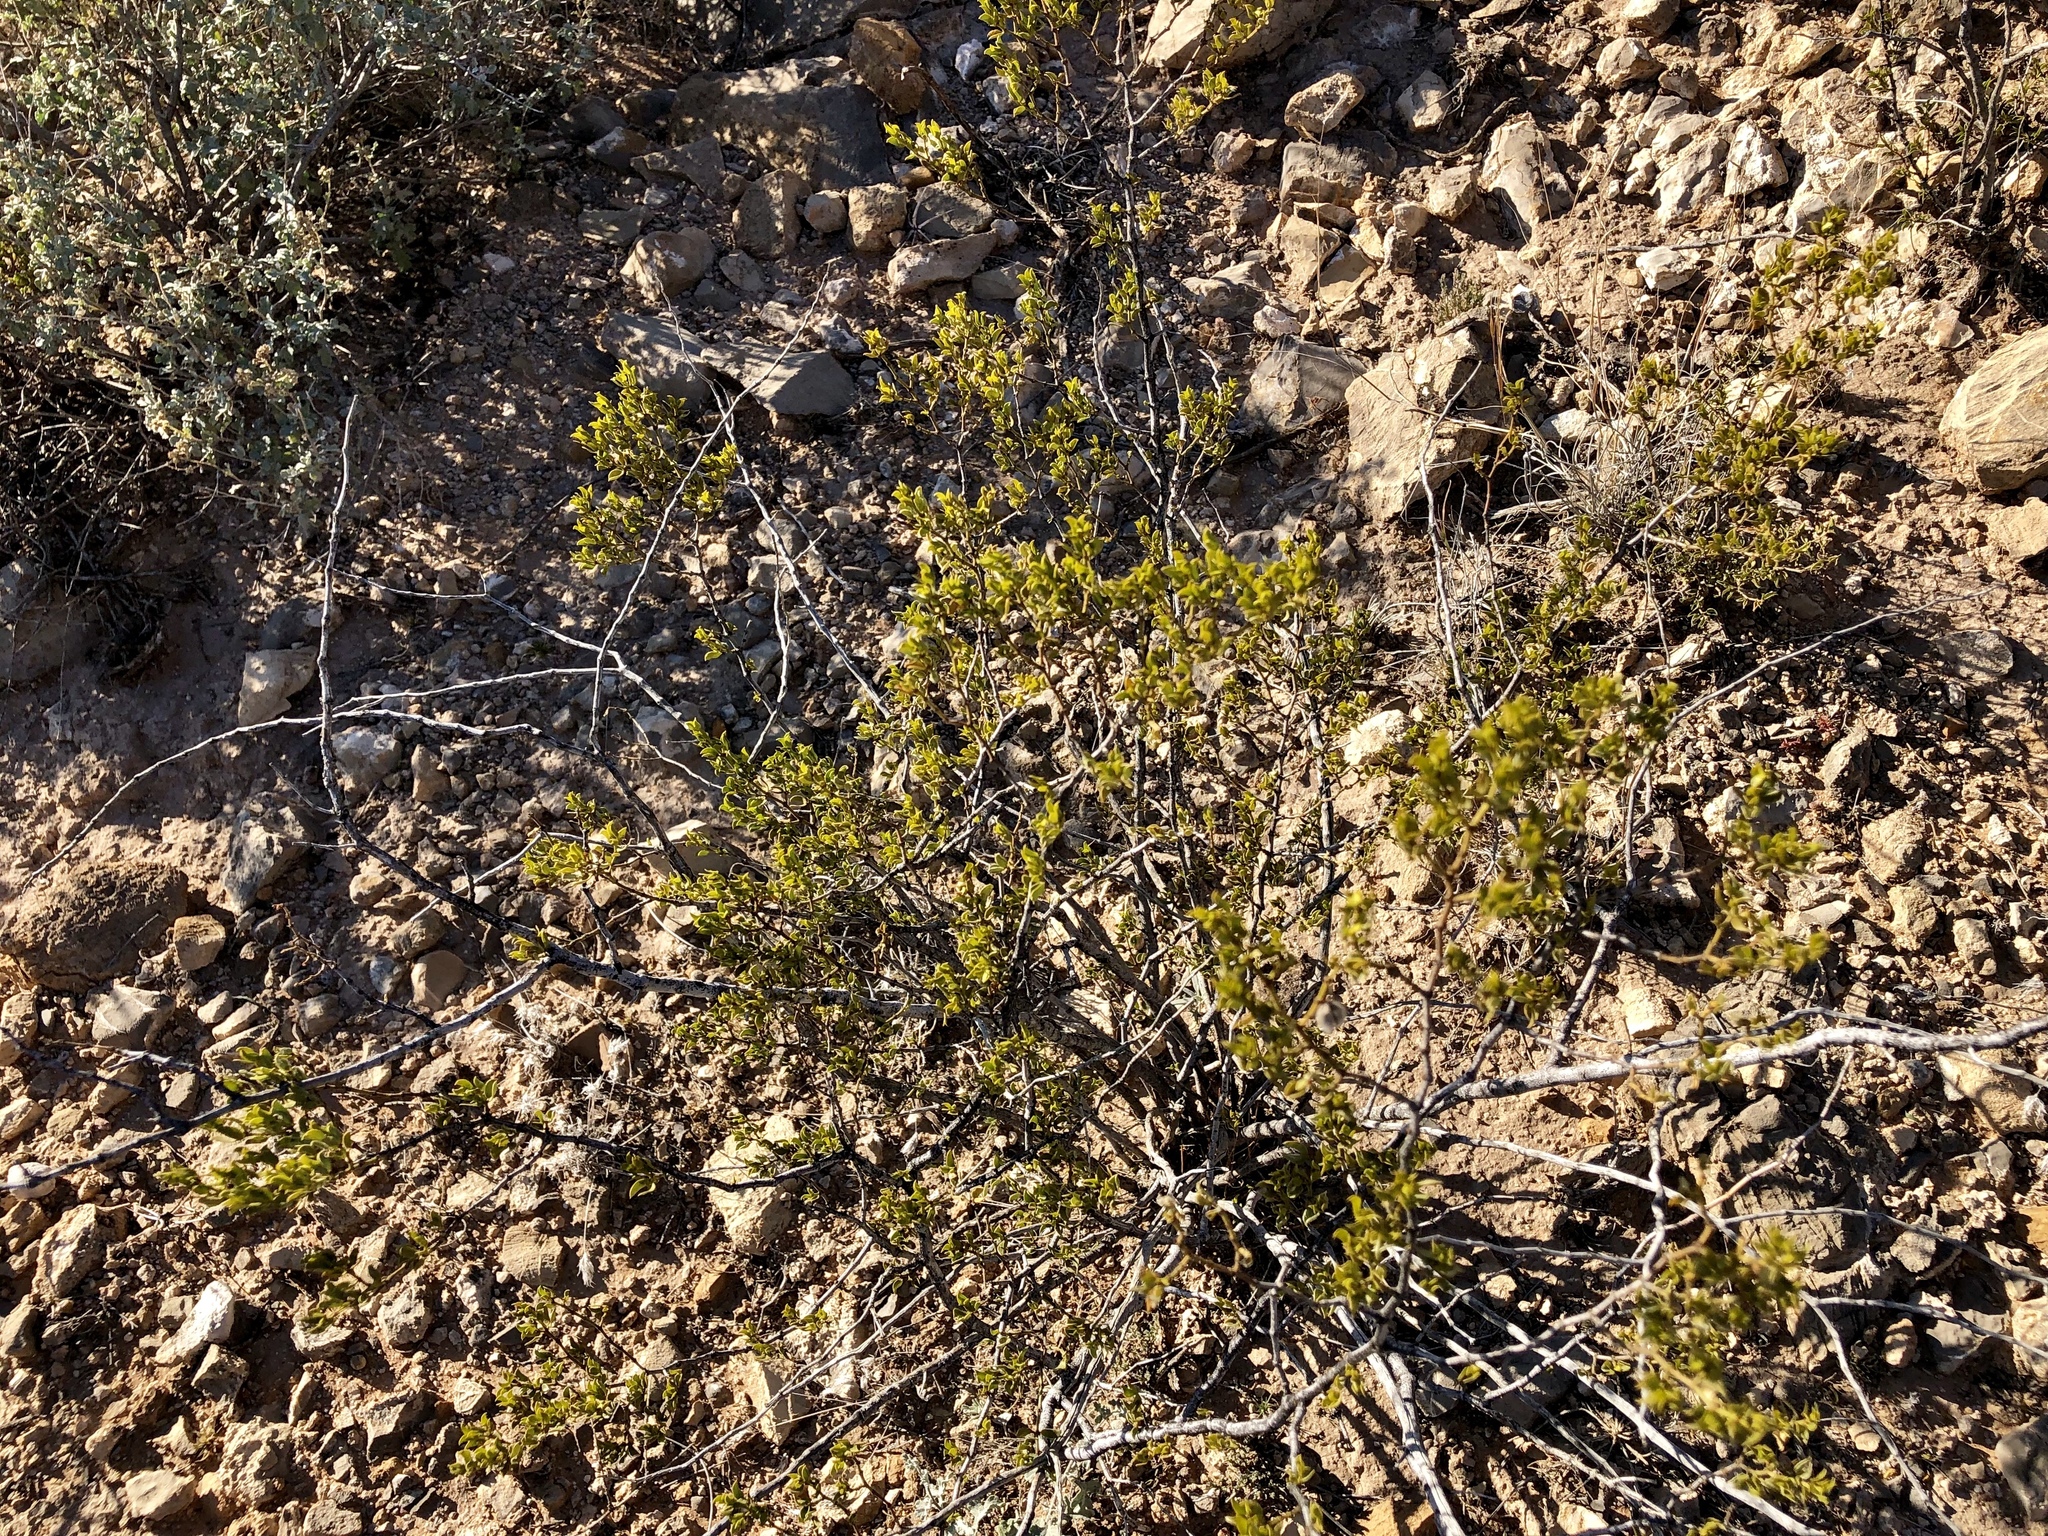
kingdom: Plantae
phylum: Tracheophyta
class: Magnoliopsida
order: Zygophyllales
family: Zygophyllaceae
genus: Larrea
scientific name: Larrea tridentata
